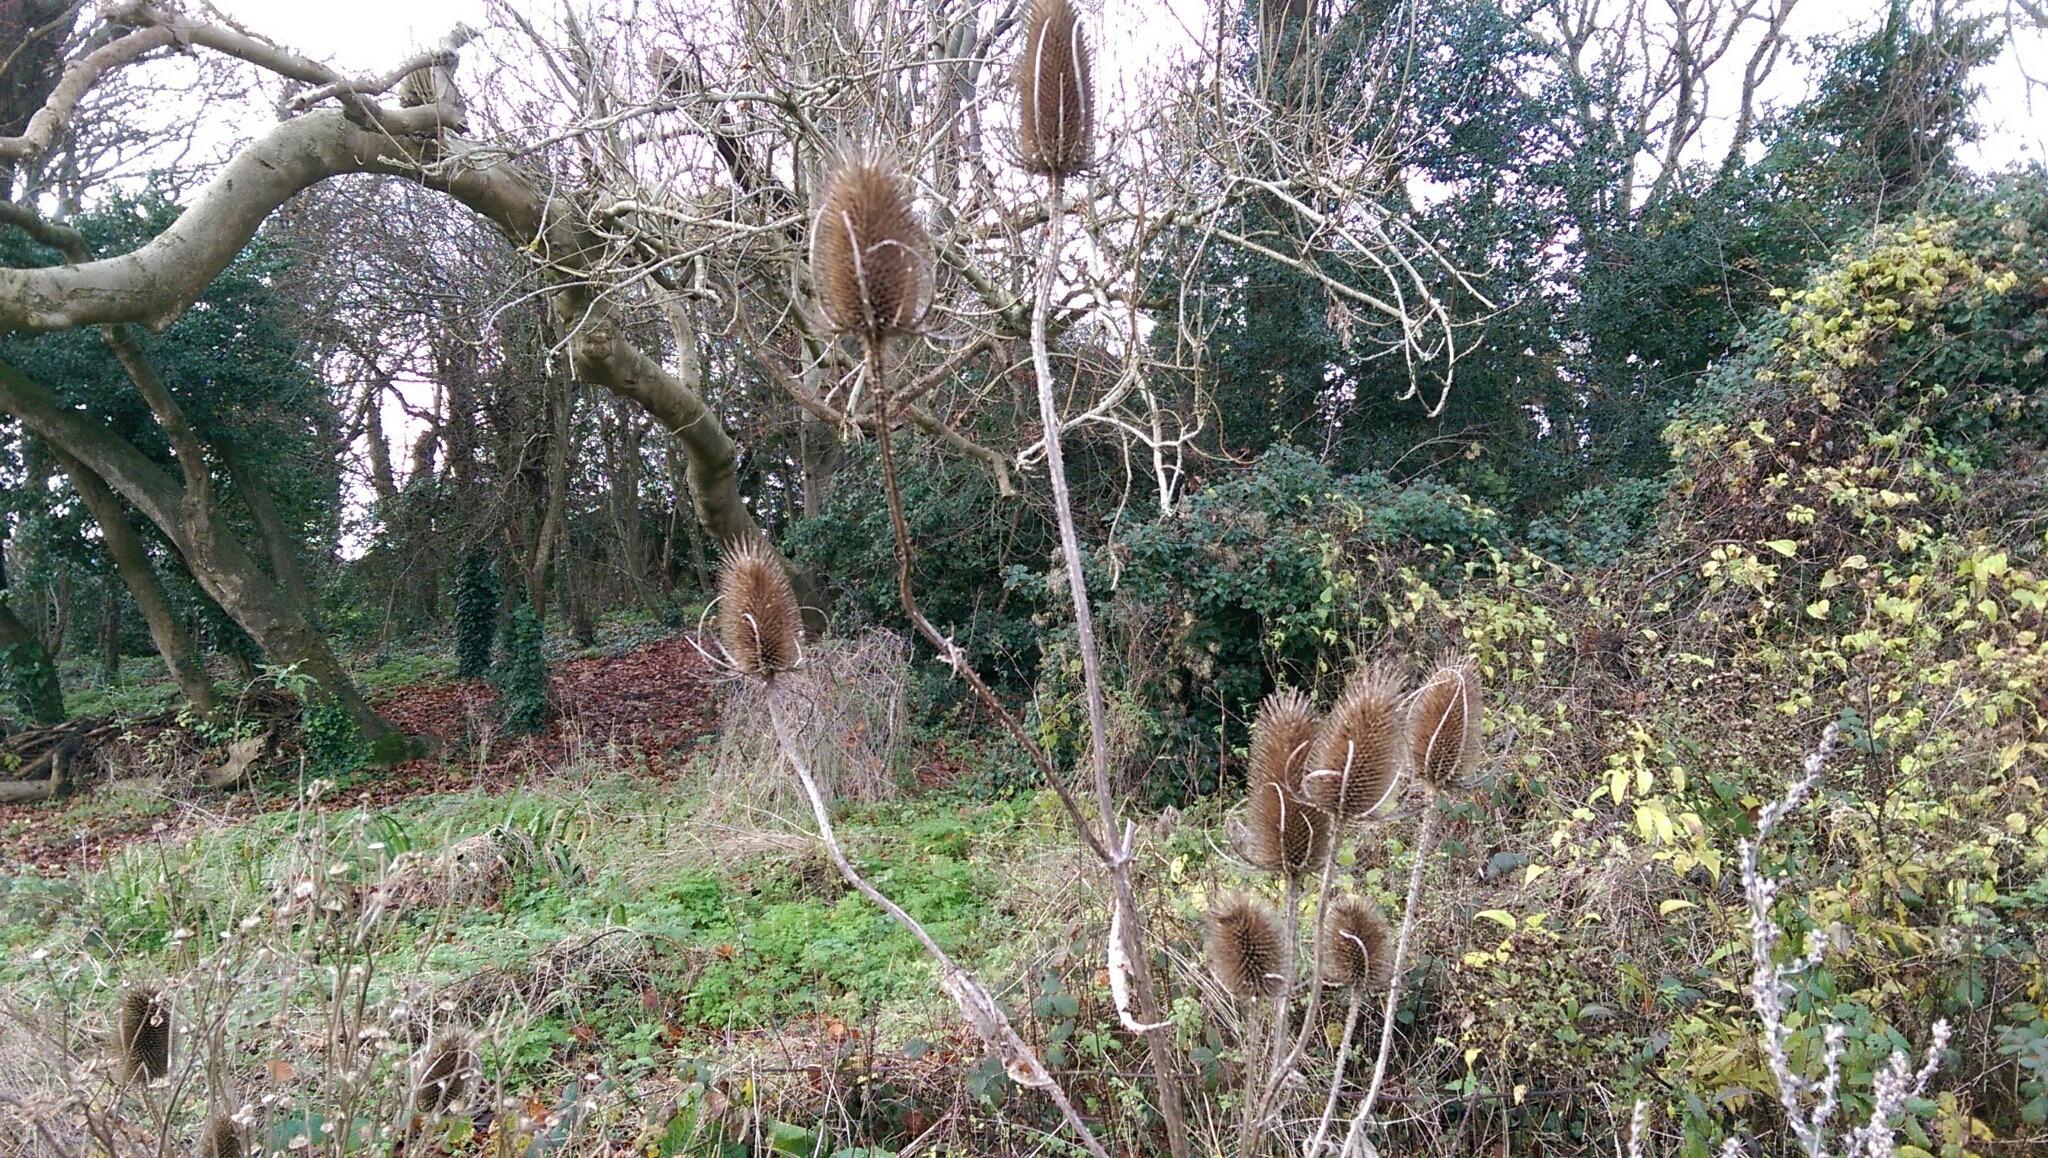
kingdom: Plantae
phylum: Tracheophyta
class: Magnoliopsida
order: Dipsacales
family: Caprifoliaceae
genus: Dipsacus
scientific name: Dipsacus fullonum
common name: Teasel
